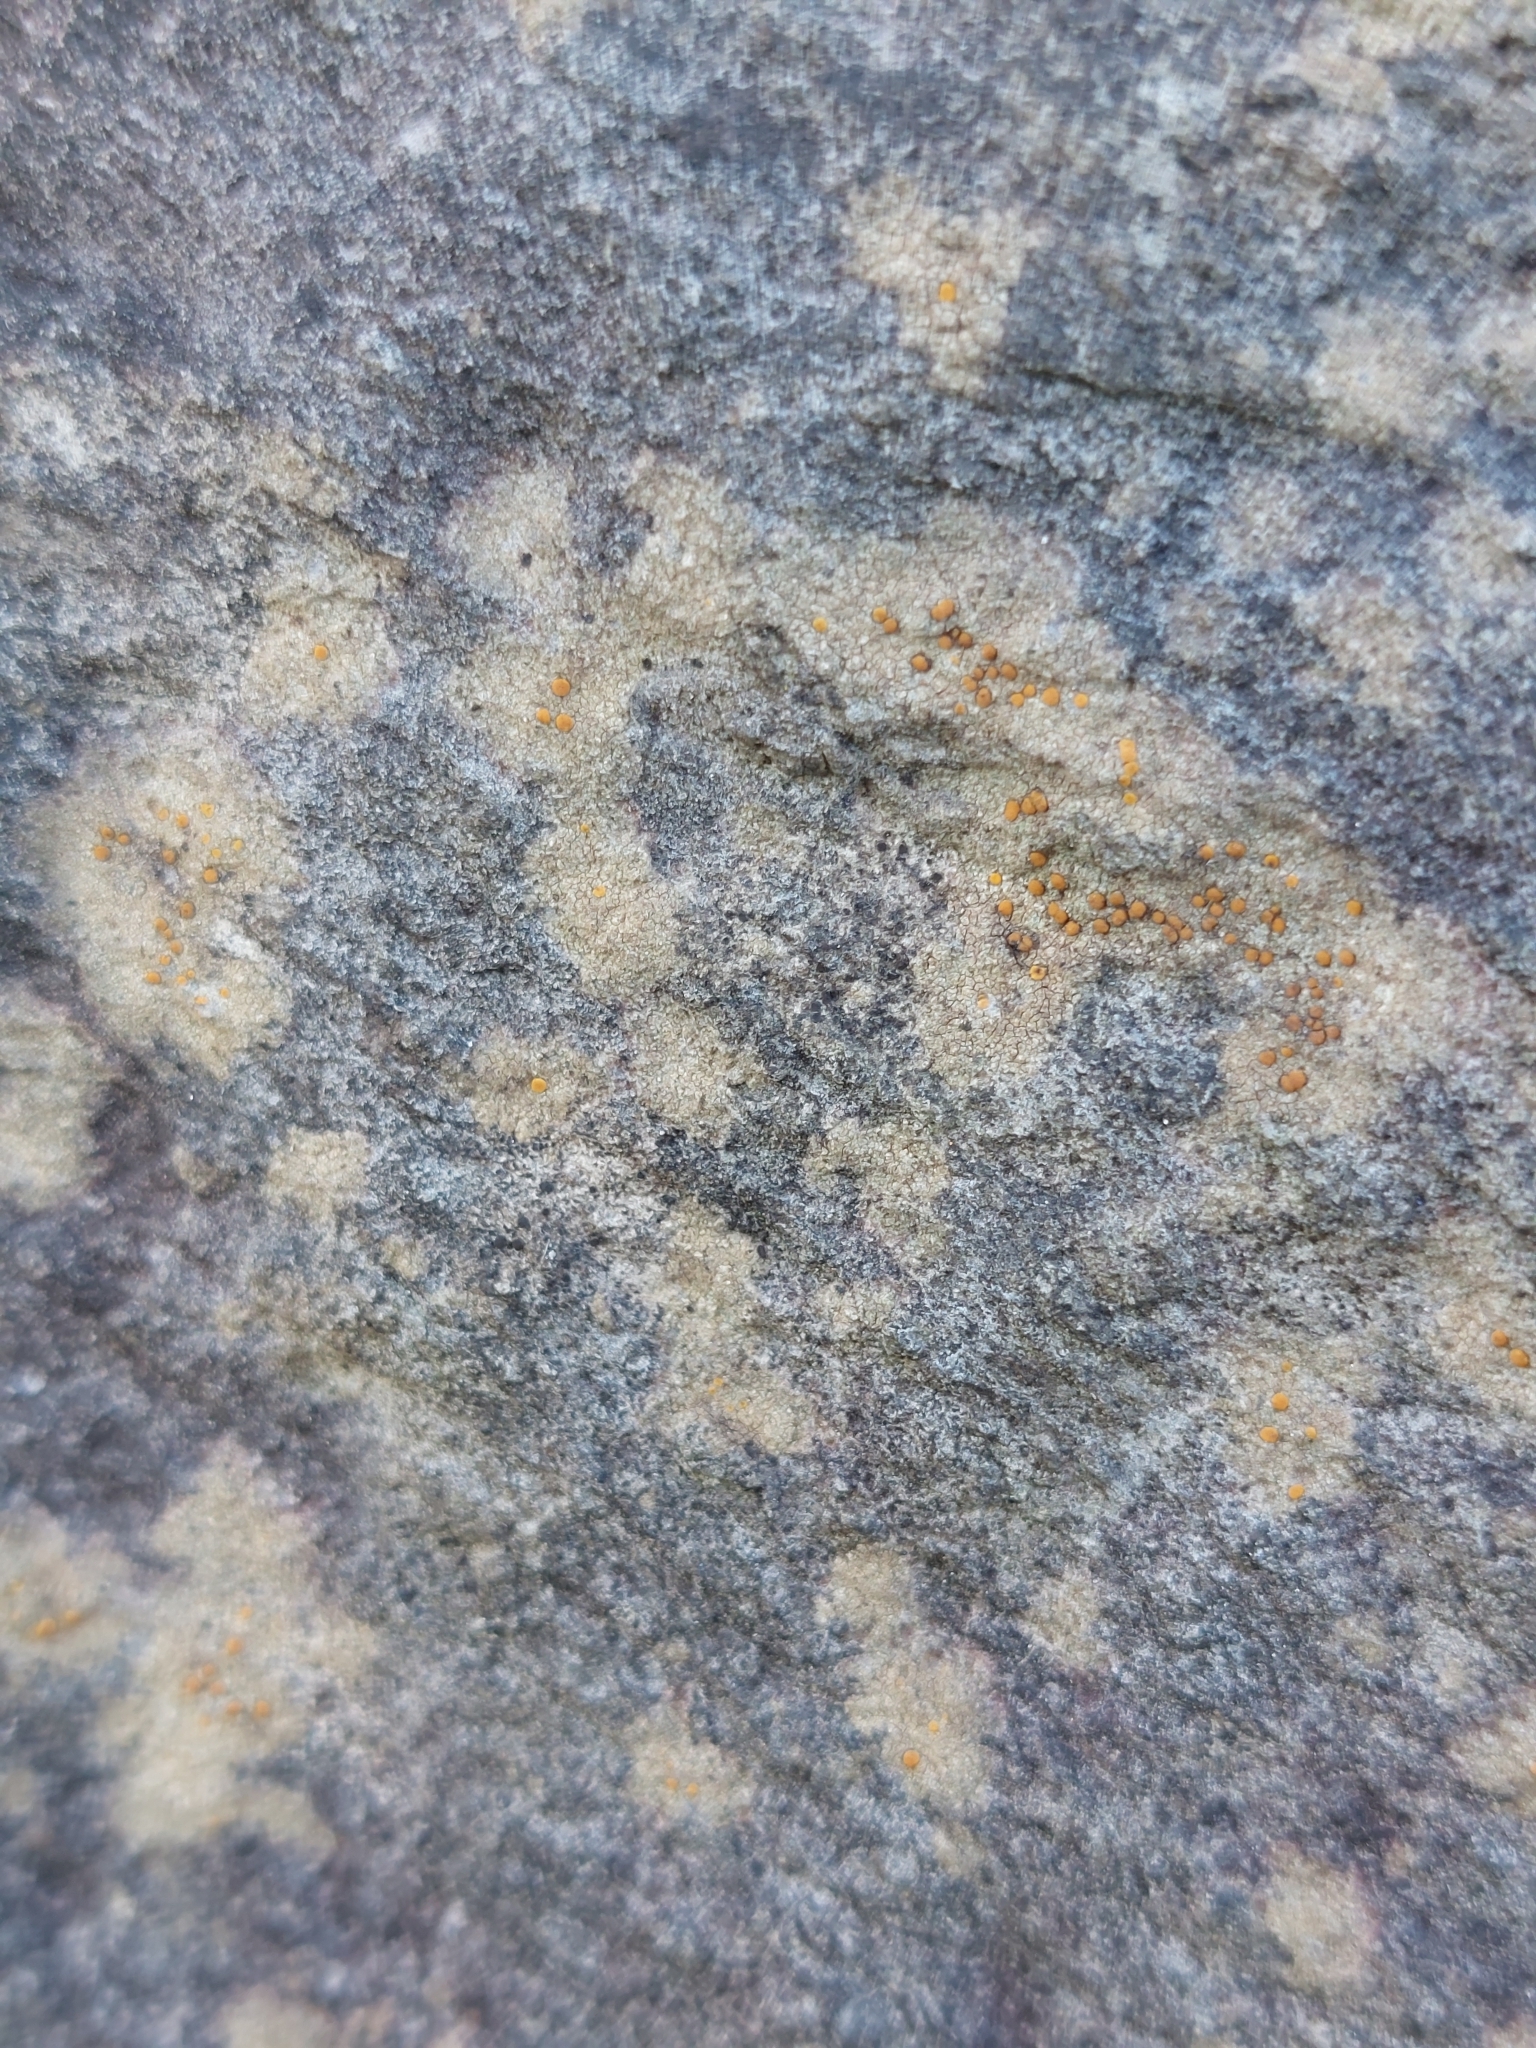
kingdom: Fungi
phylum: Ascomycota
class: Lecanoromycetes
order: Lecanorales
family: Psoraceae
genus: Protoblastenia
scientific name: Protoblastenia rupestris
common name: Chewing gum lichen
